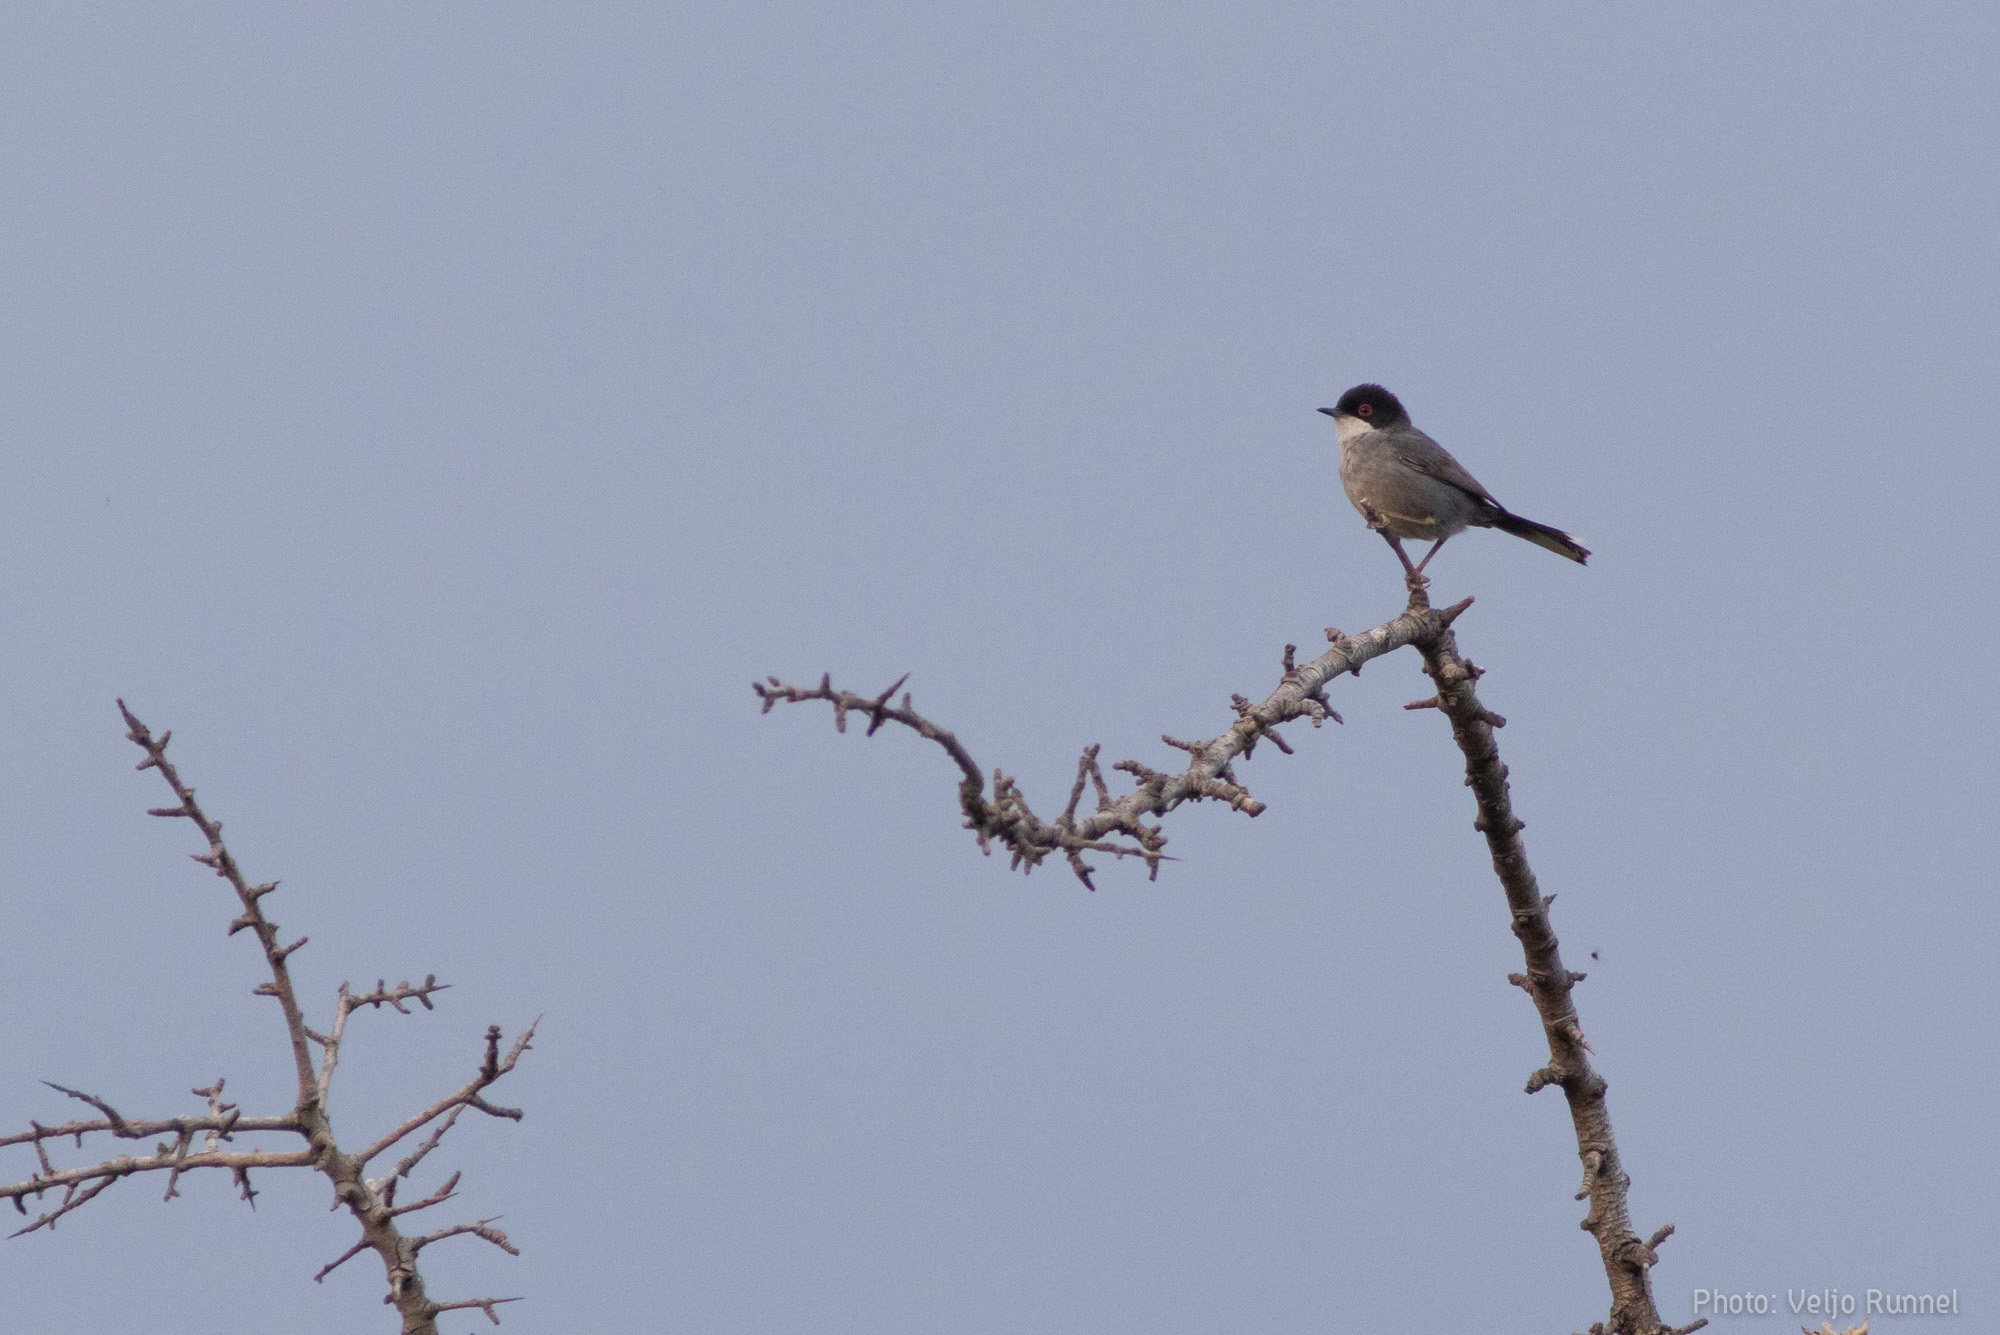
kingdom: Animalia
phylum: Chordata
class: Aves
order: Passeriformes
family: Sylviidae
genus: Curruca
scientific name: Curruca melanocephala
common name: Sardinian warbler
